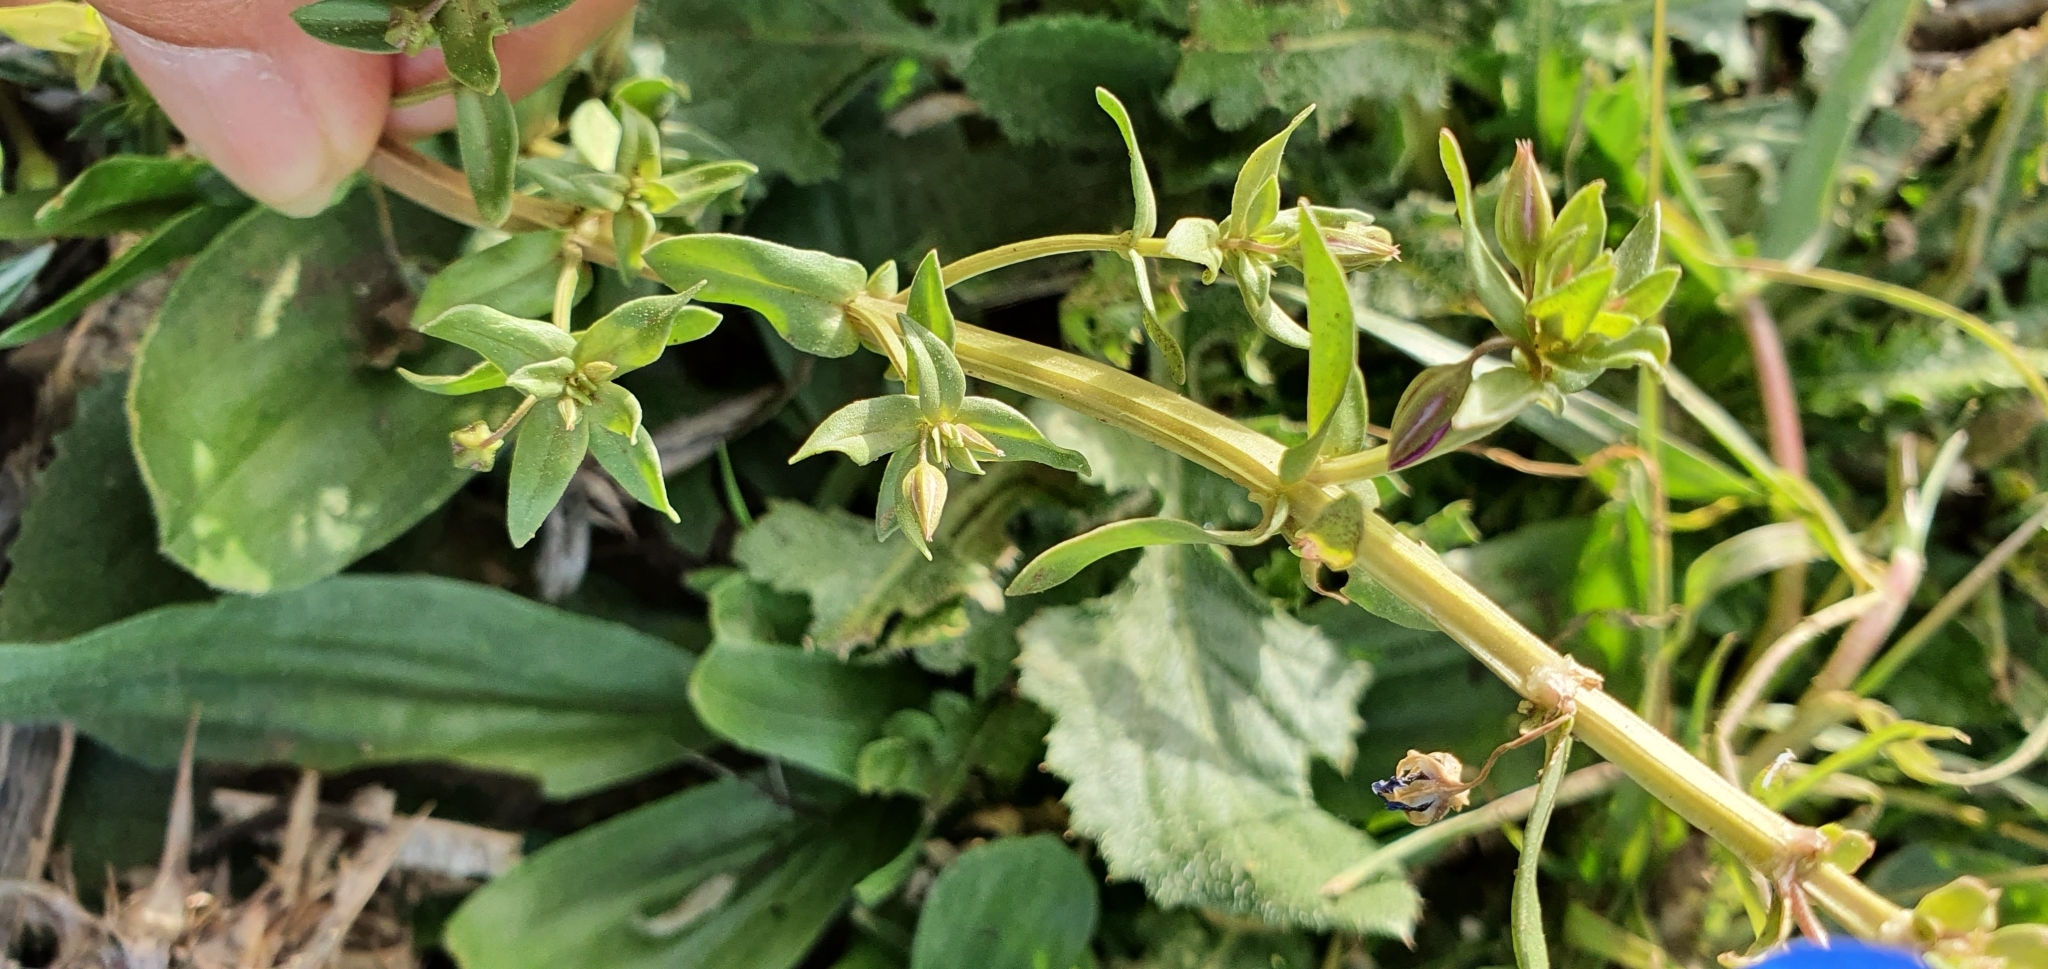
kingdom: Plantae
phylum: Tracheophyta
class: Magnoliopsida
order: Ericales
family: Primulaceae
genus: Lysimachia
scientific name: Lysimachia monelli
